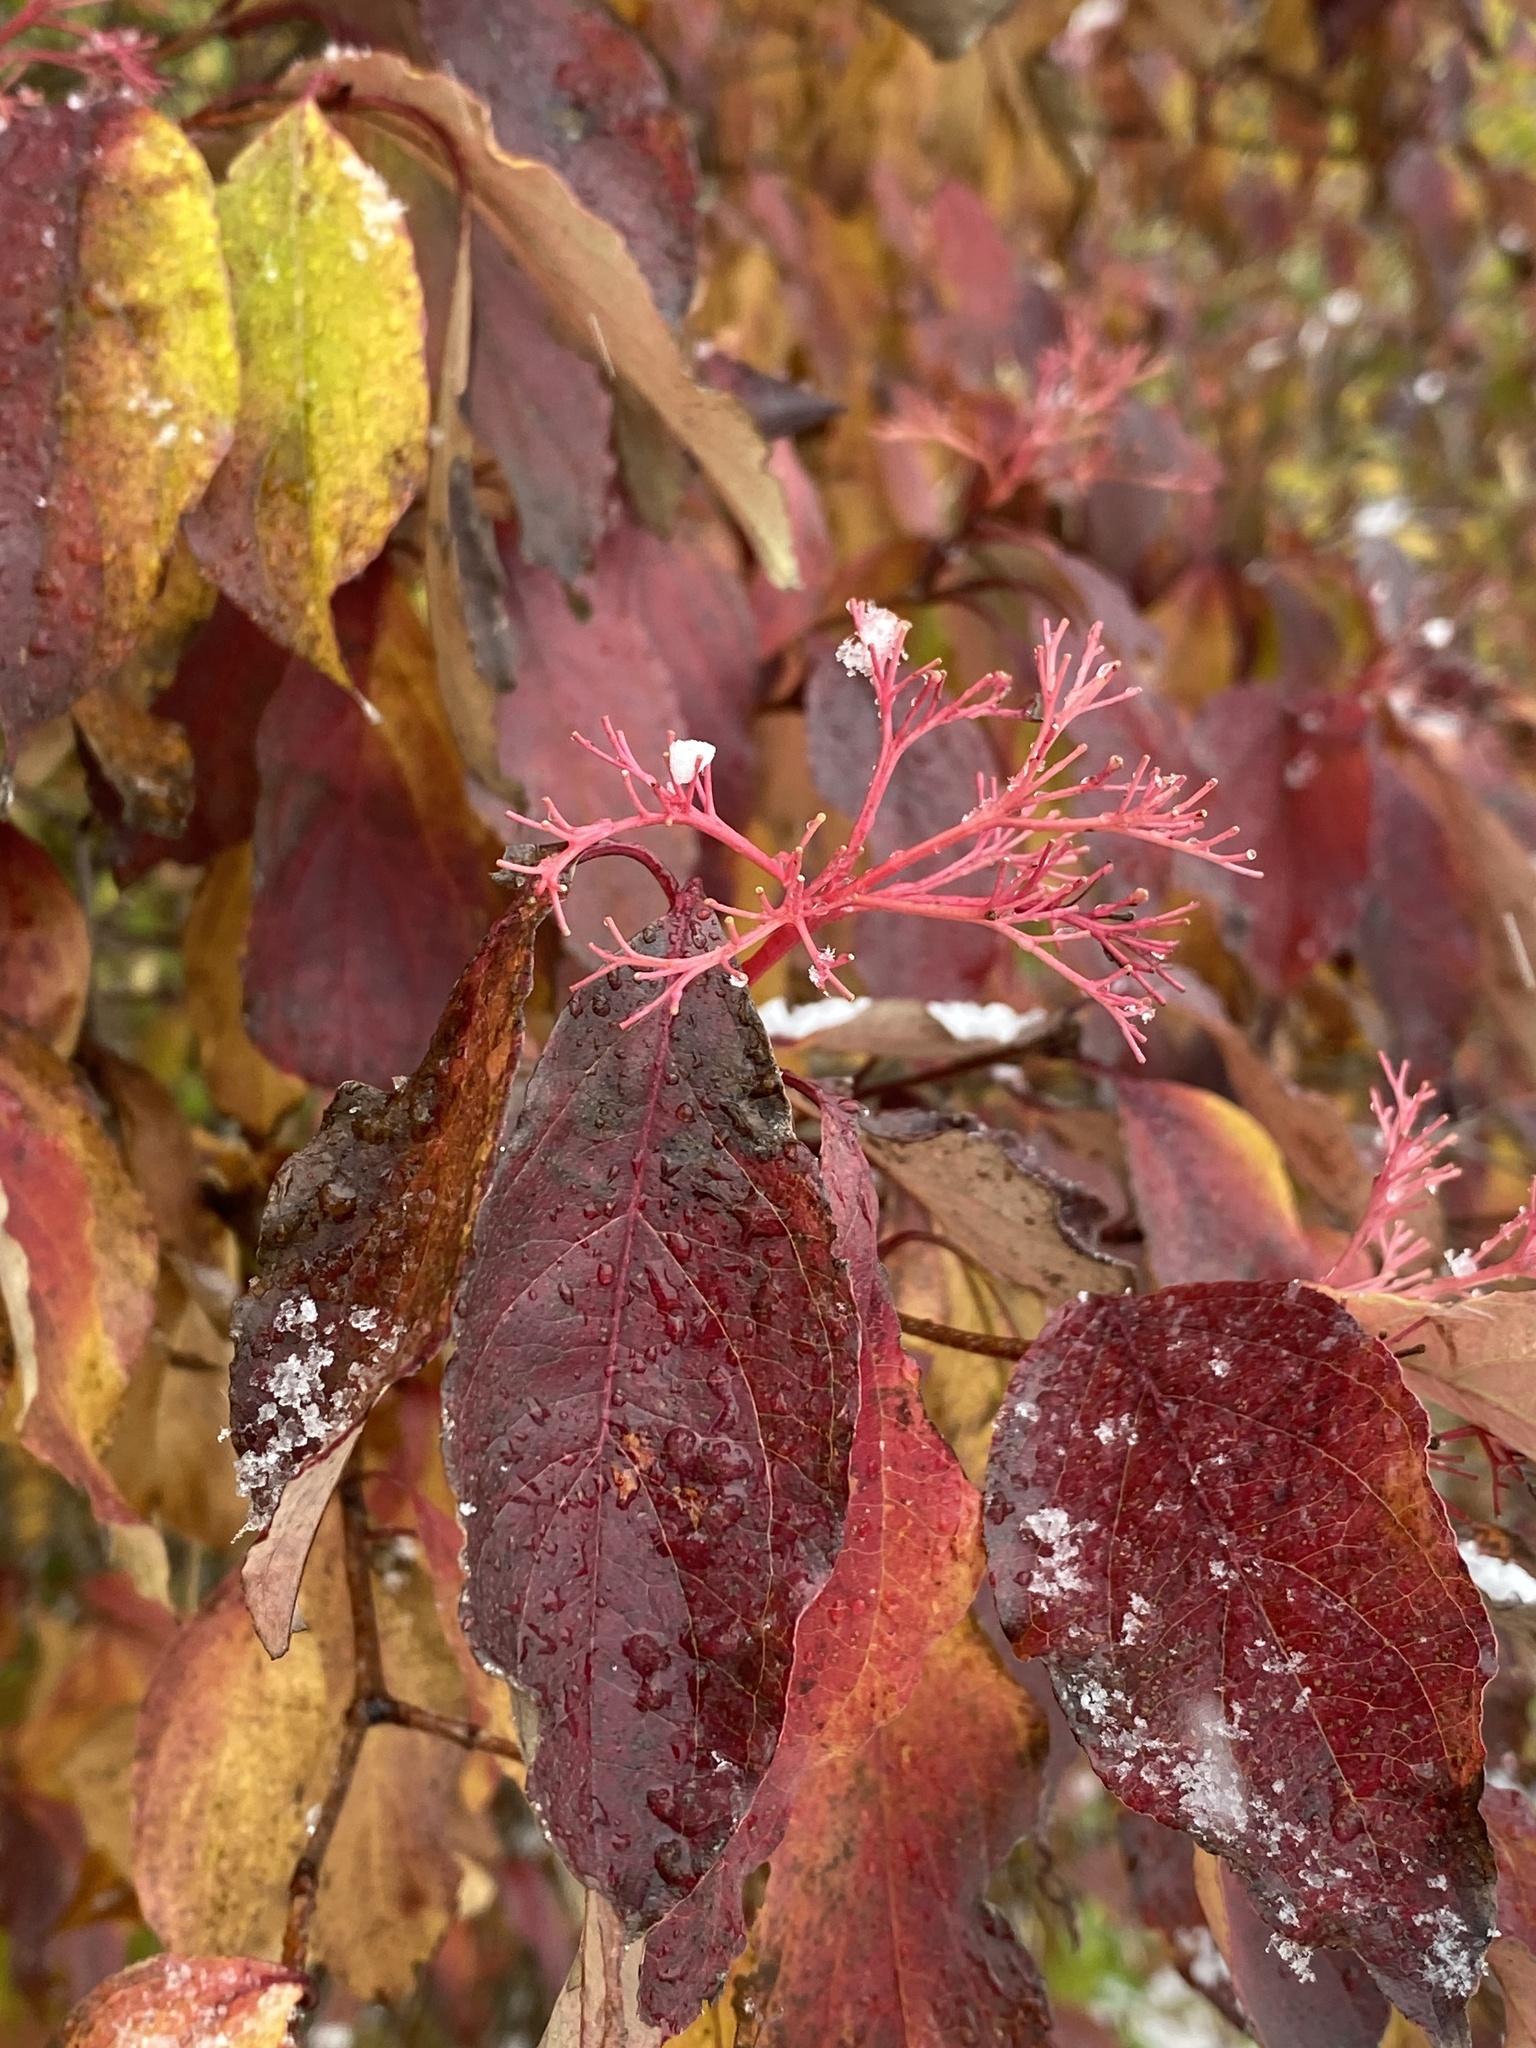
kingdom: Plantae
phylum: Tracheophyta
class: Magnoliopsida
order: Cornales
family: Cornaceae
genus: Cornus
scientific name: Cornus racemosa
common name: Panicled dogwood
